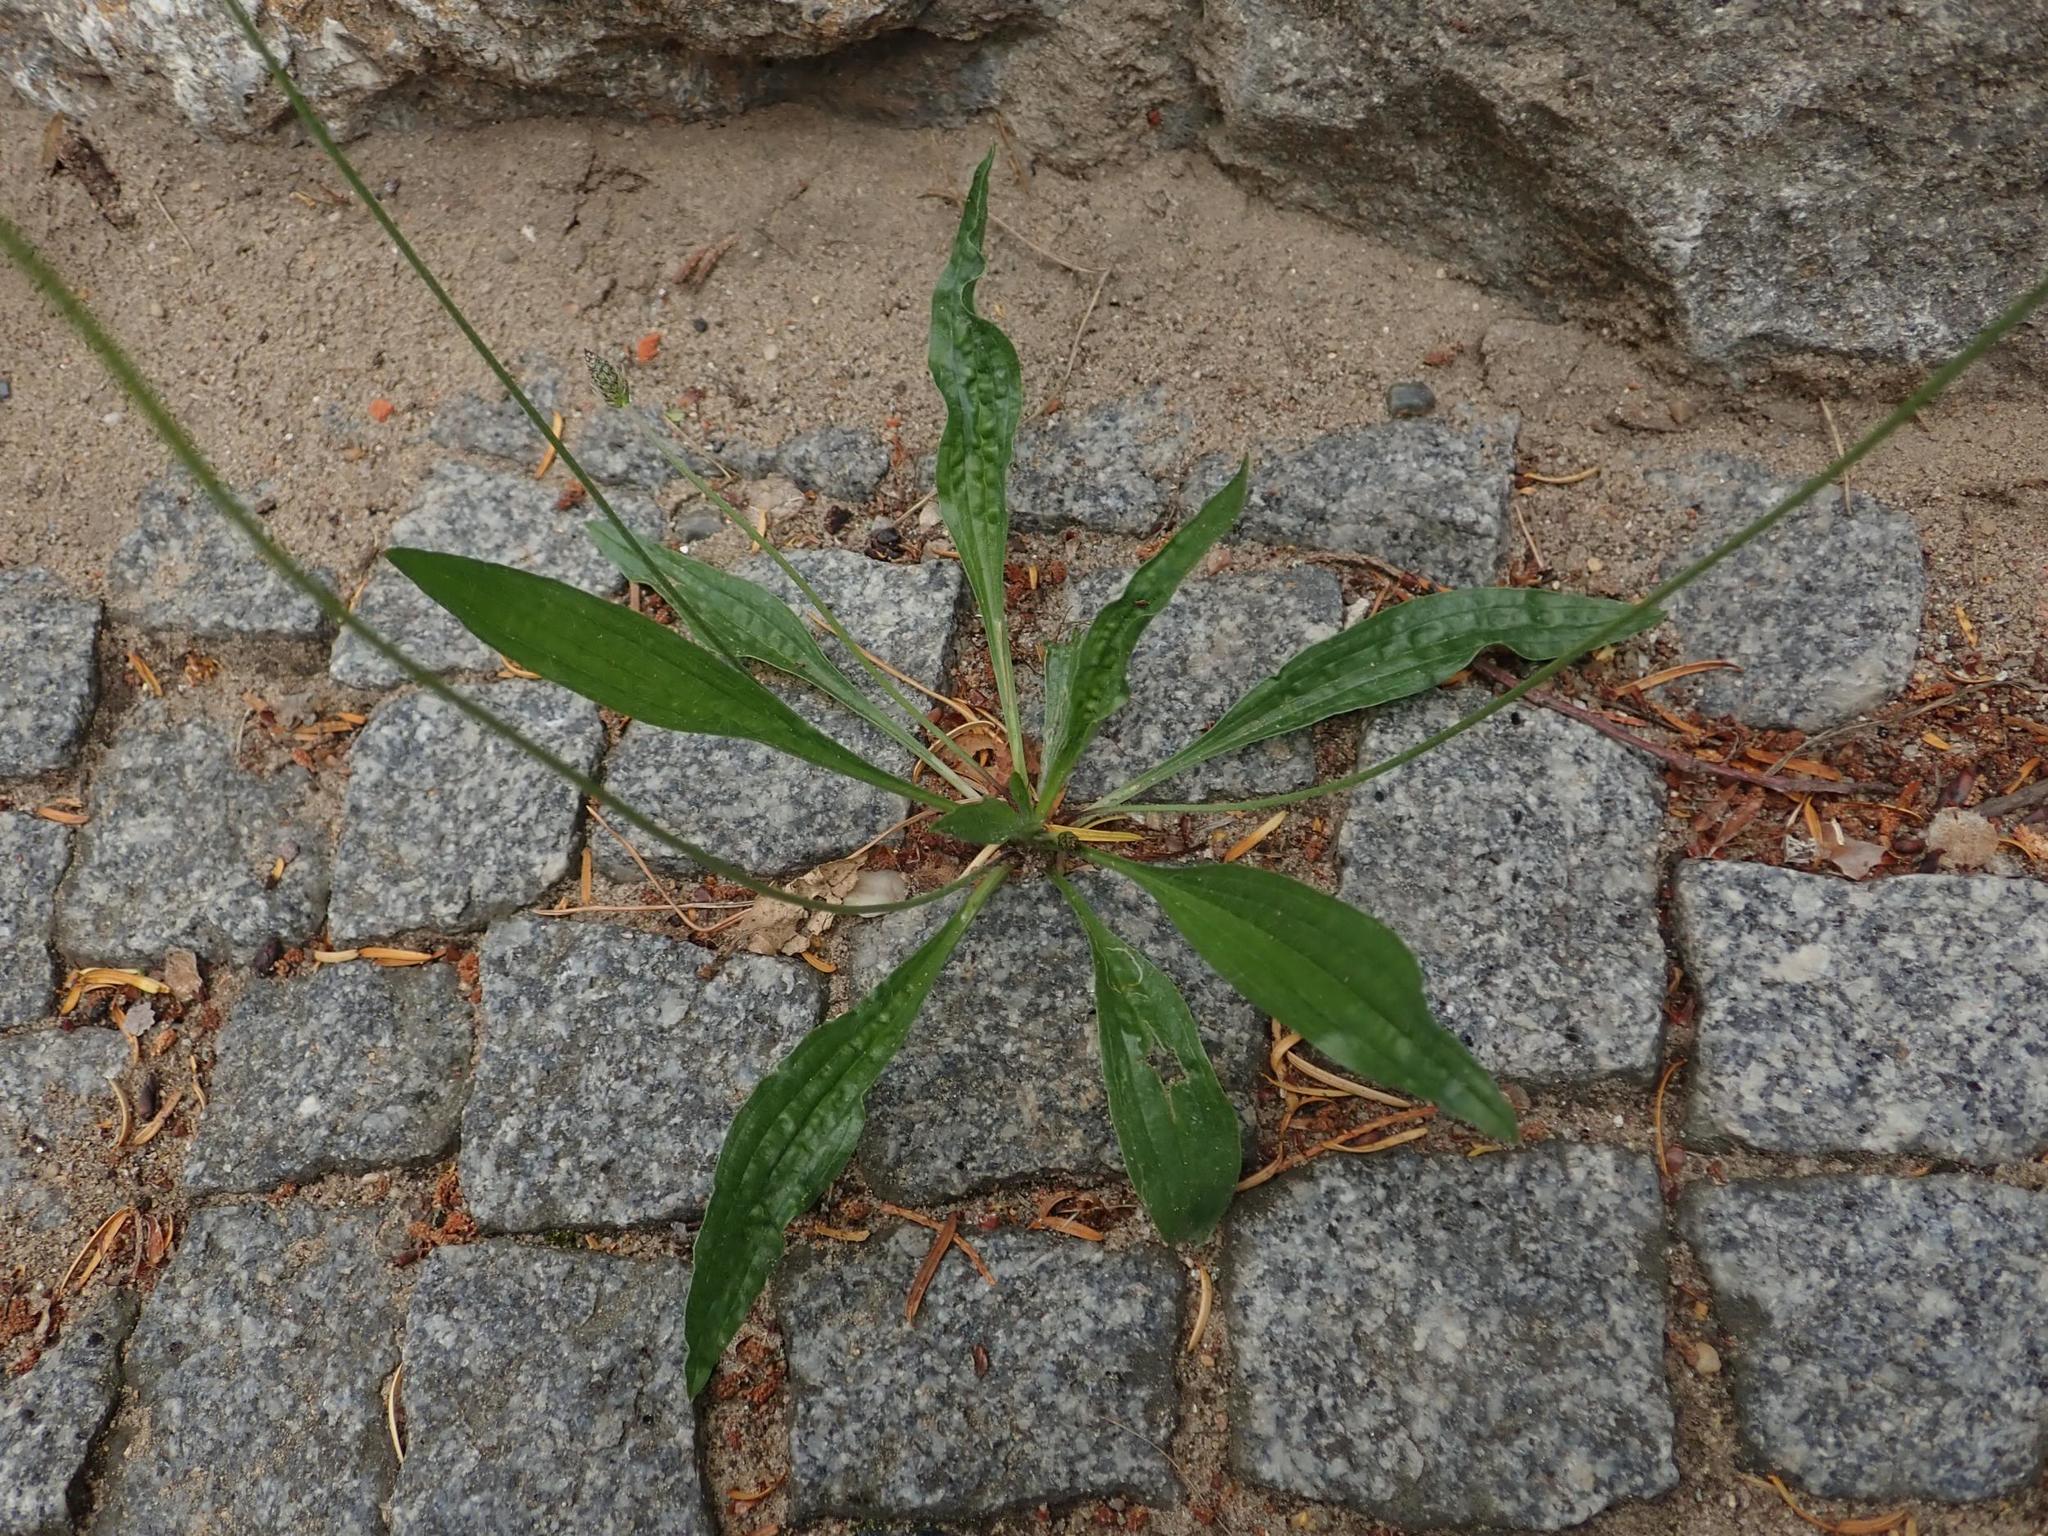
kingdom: Plantae
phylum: Tracheophyta
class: Magnoliopsida
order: Lamiales
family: Plantaginaceae
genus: Plantago
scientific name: Plantago lanceolata
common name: Ribwort plantain
